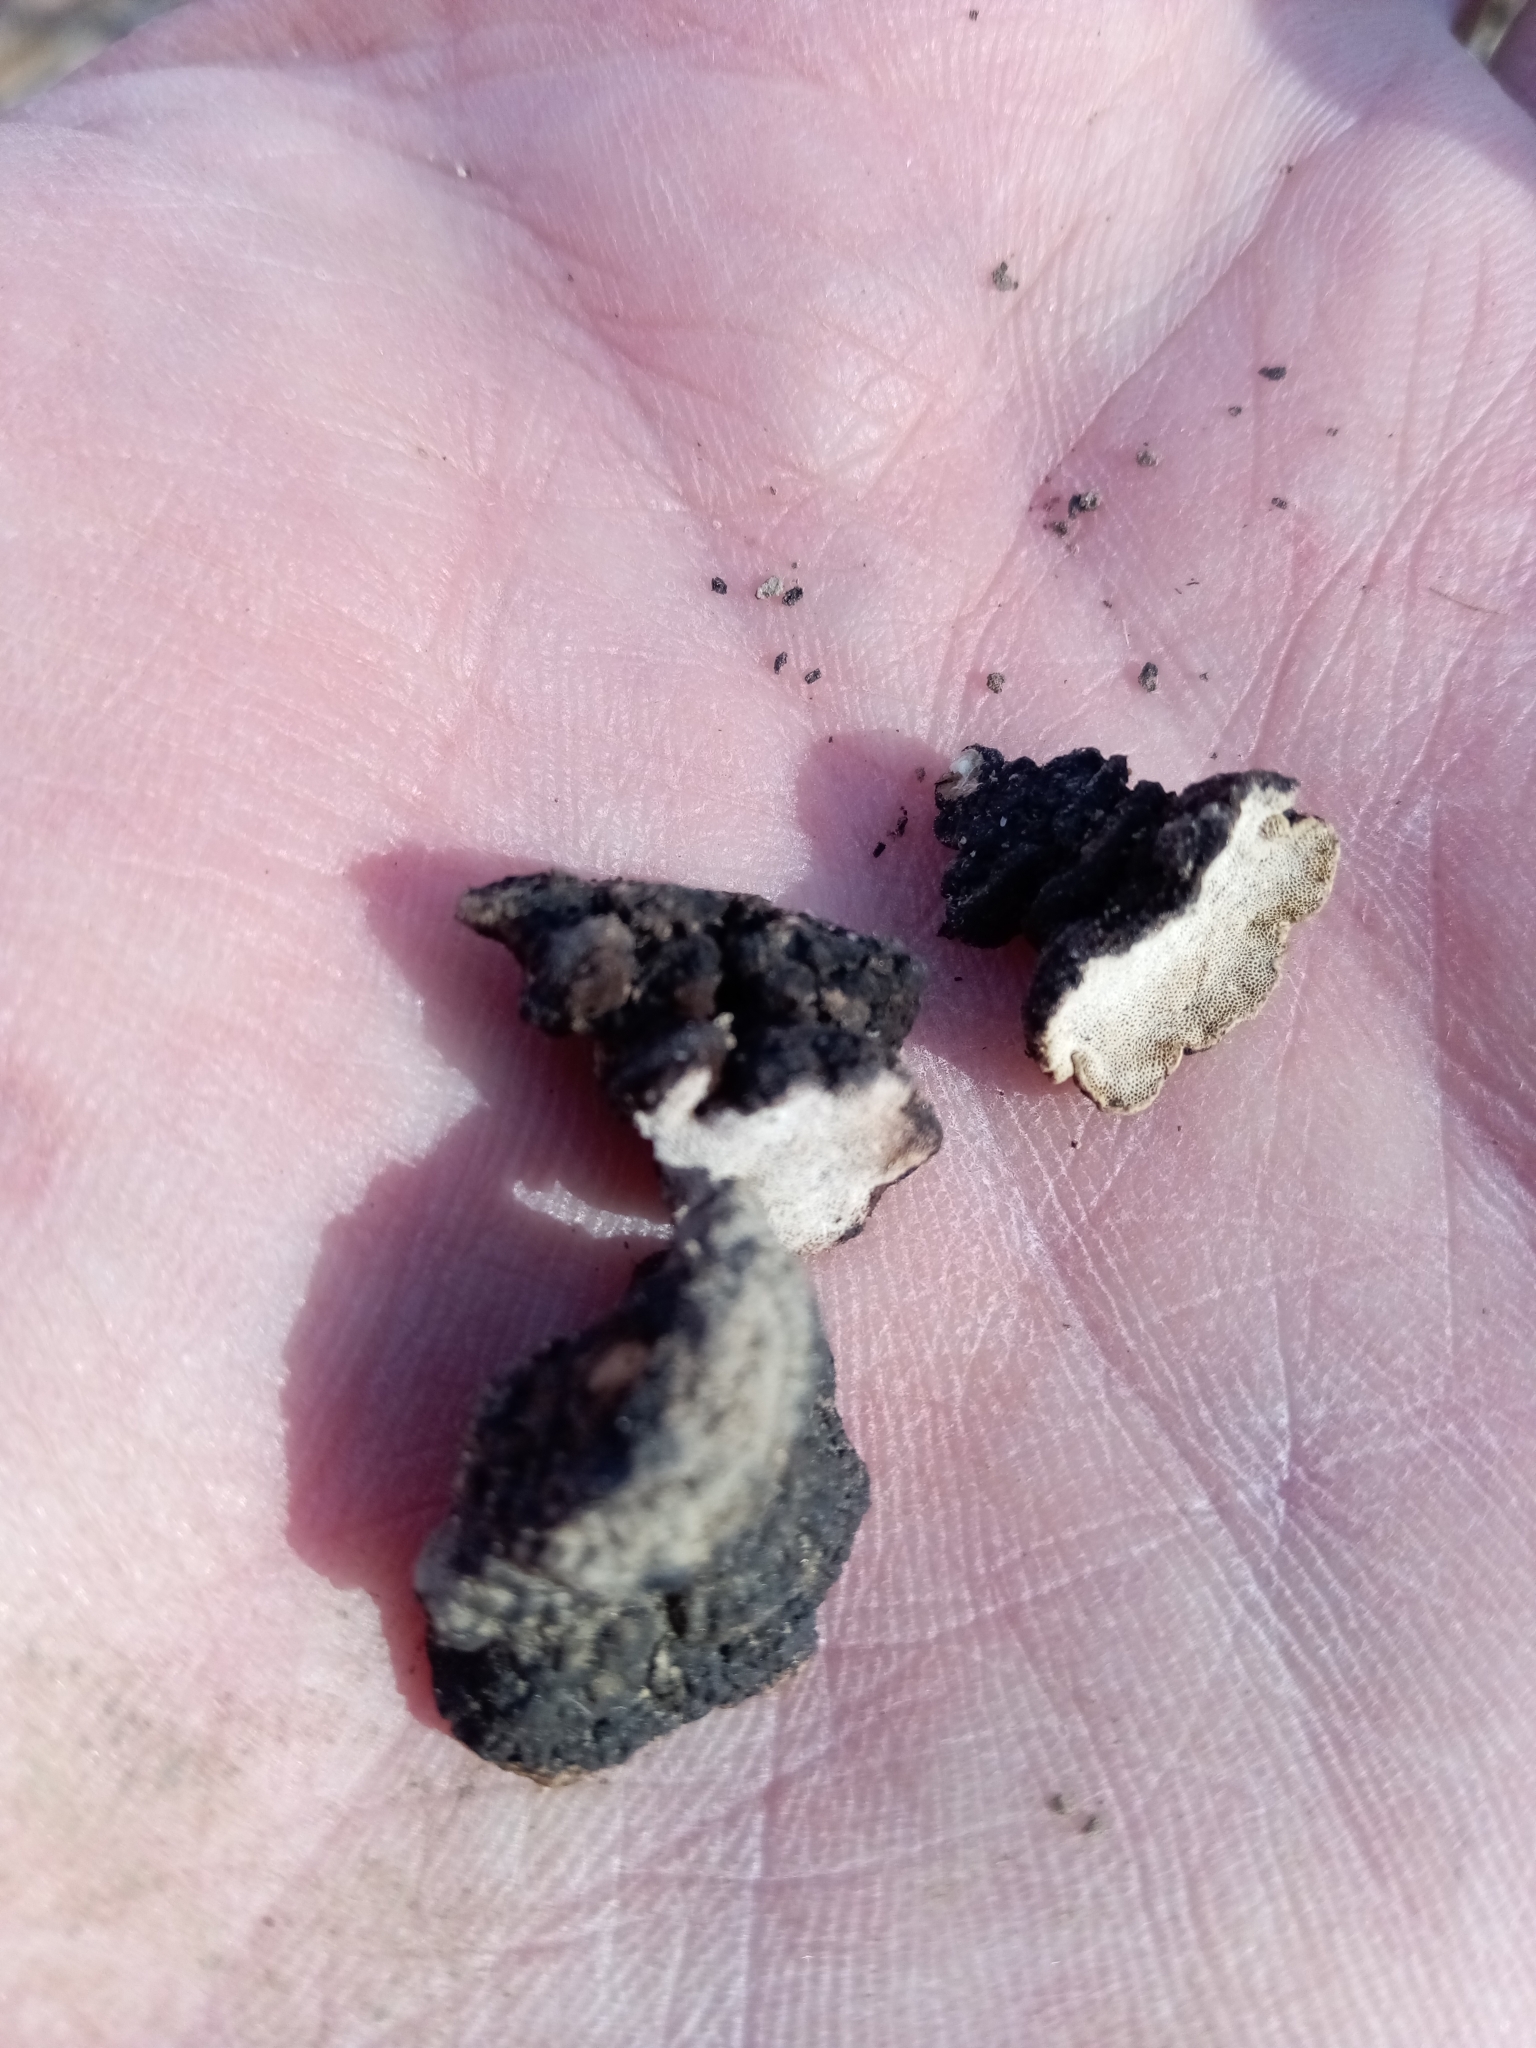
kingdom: Fungi
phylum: Basidiomycota
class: Agaricomycetes
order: Polyporales
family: Polyporaceae
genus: Podofomes
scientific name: Podofomes stereoides
